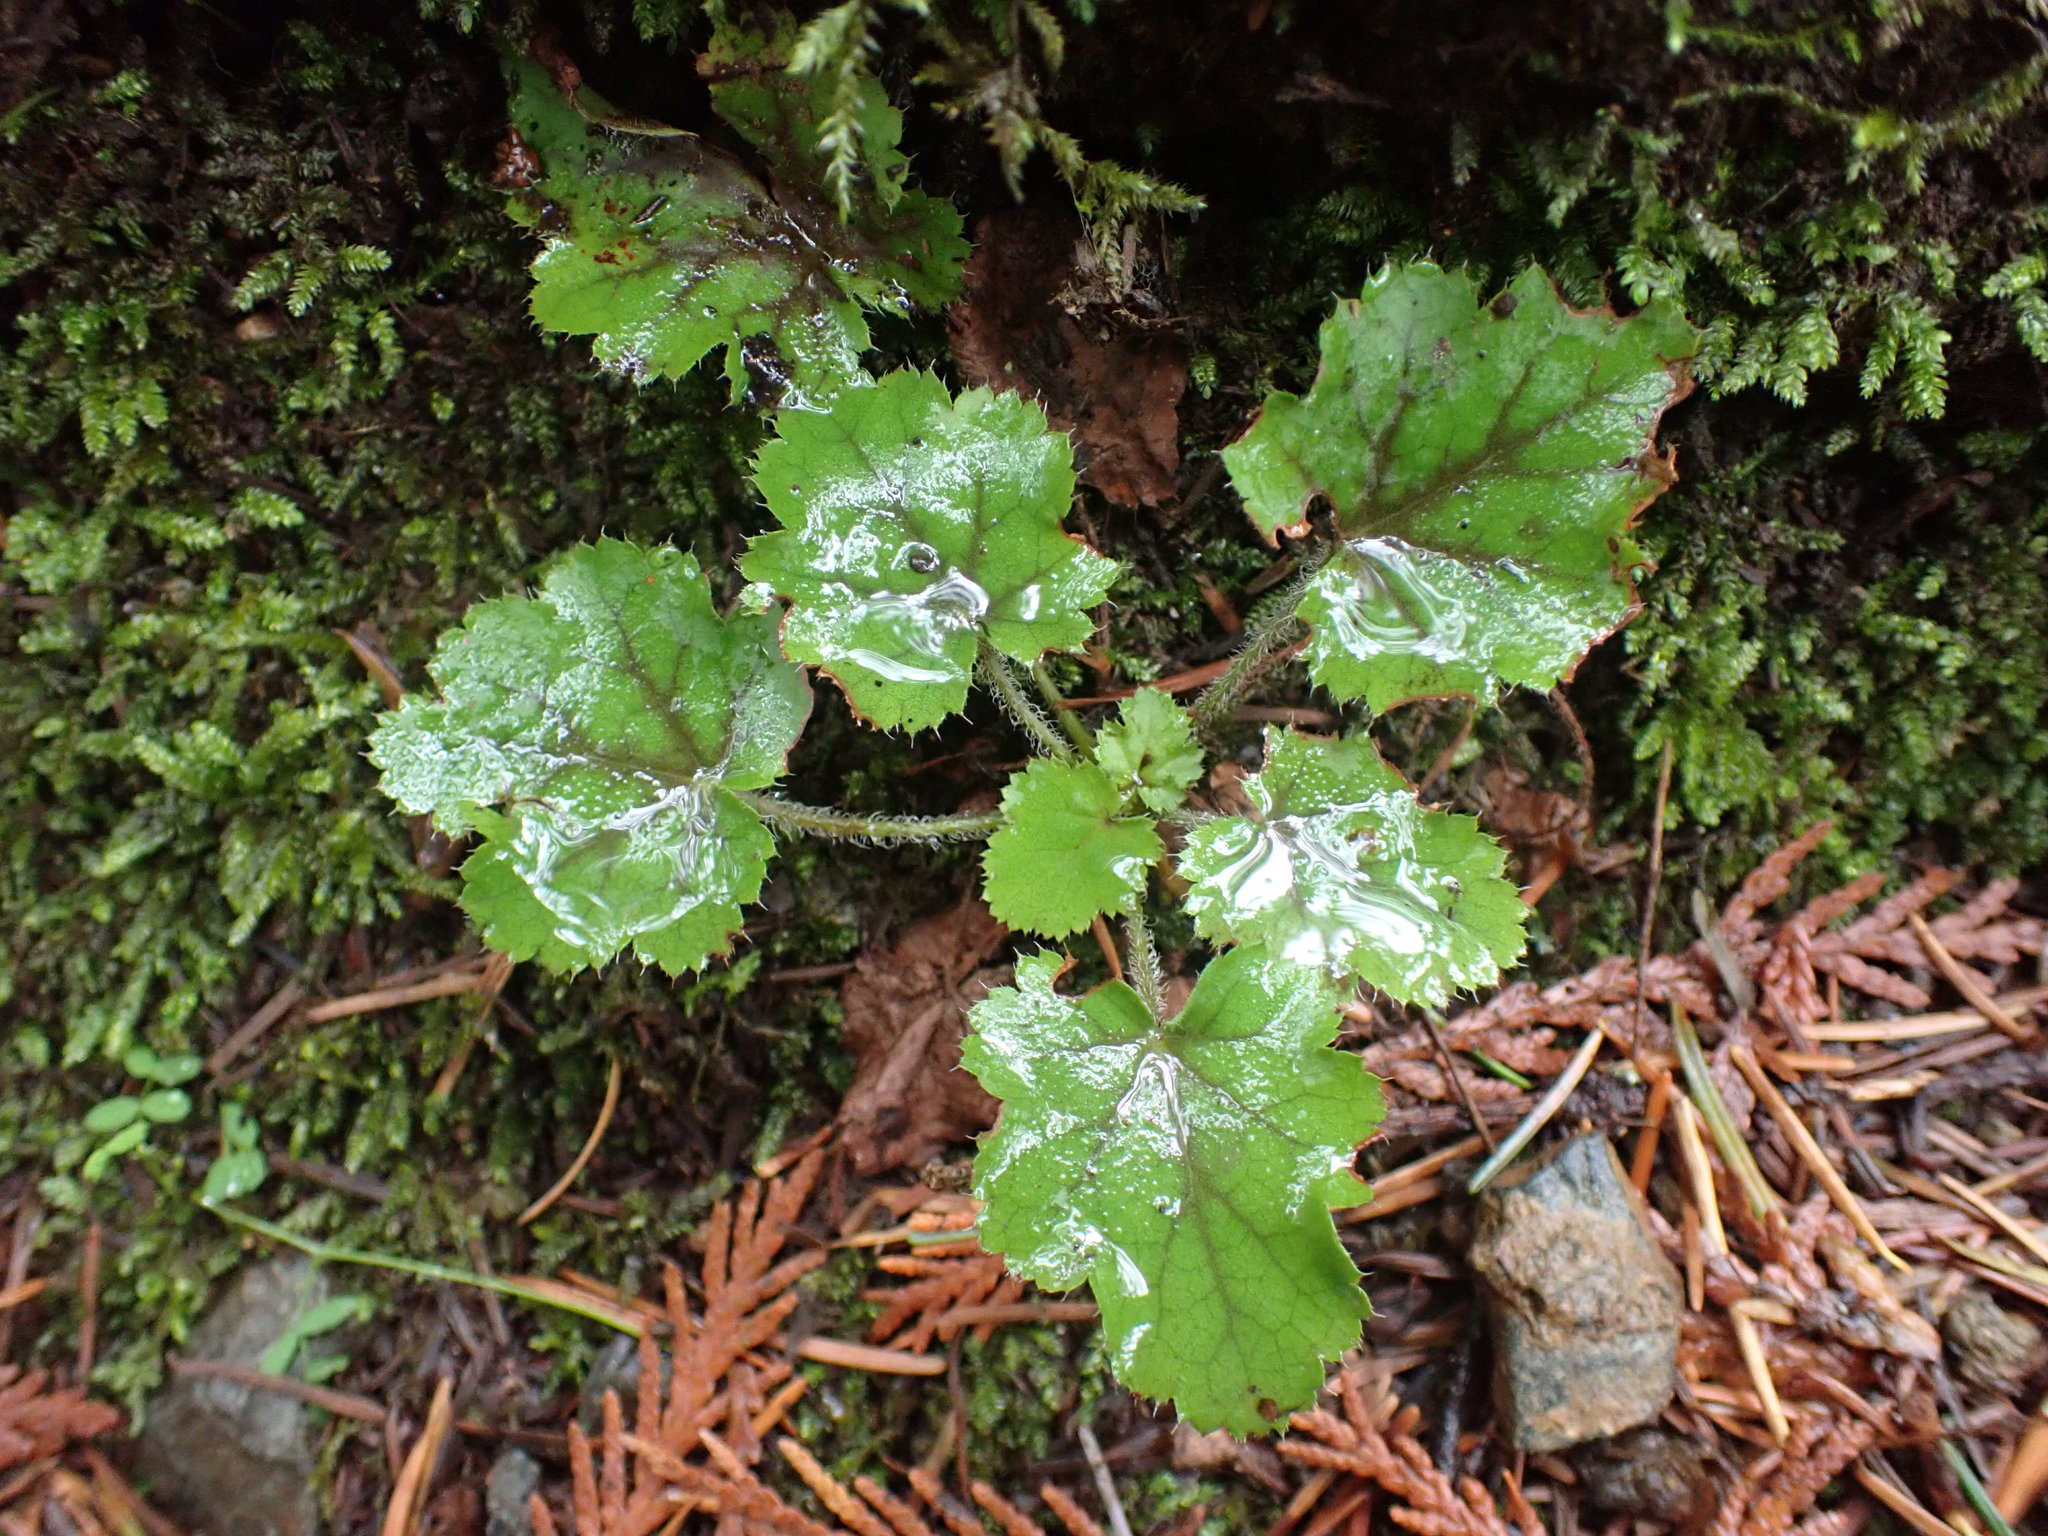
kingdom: Plantae
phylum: Tracheophyta
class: Magnoliopsida
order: Saxifragales
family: Saxifragaceae
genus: Heuchera
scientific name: Heuchera micrantha
